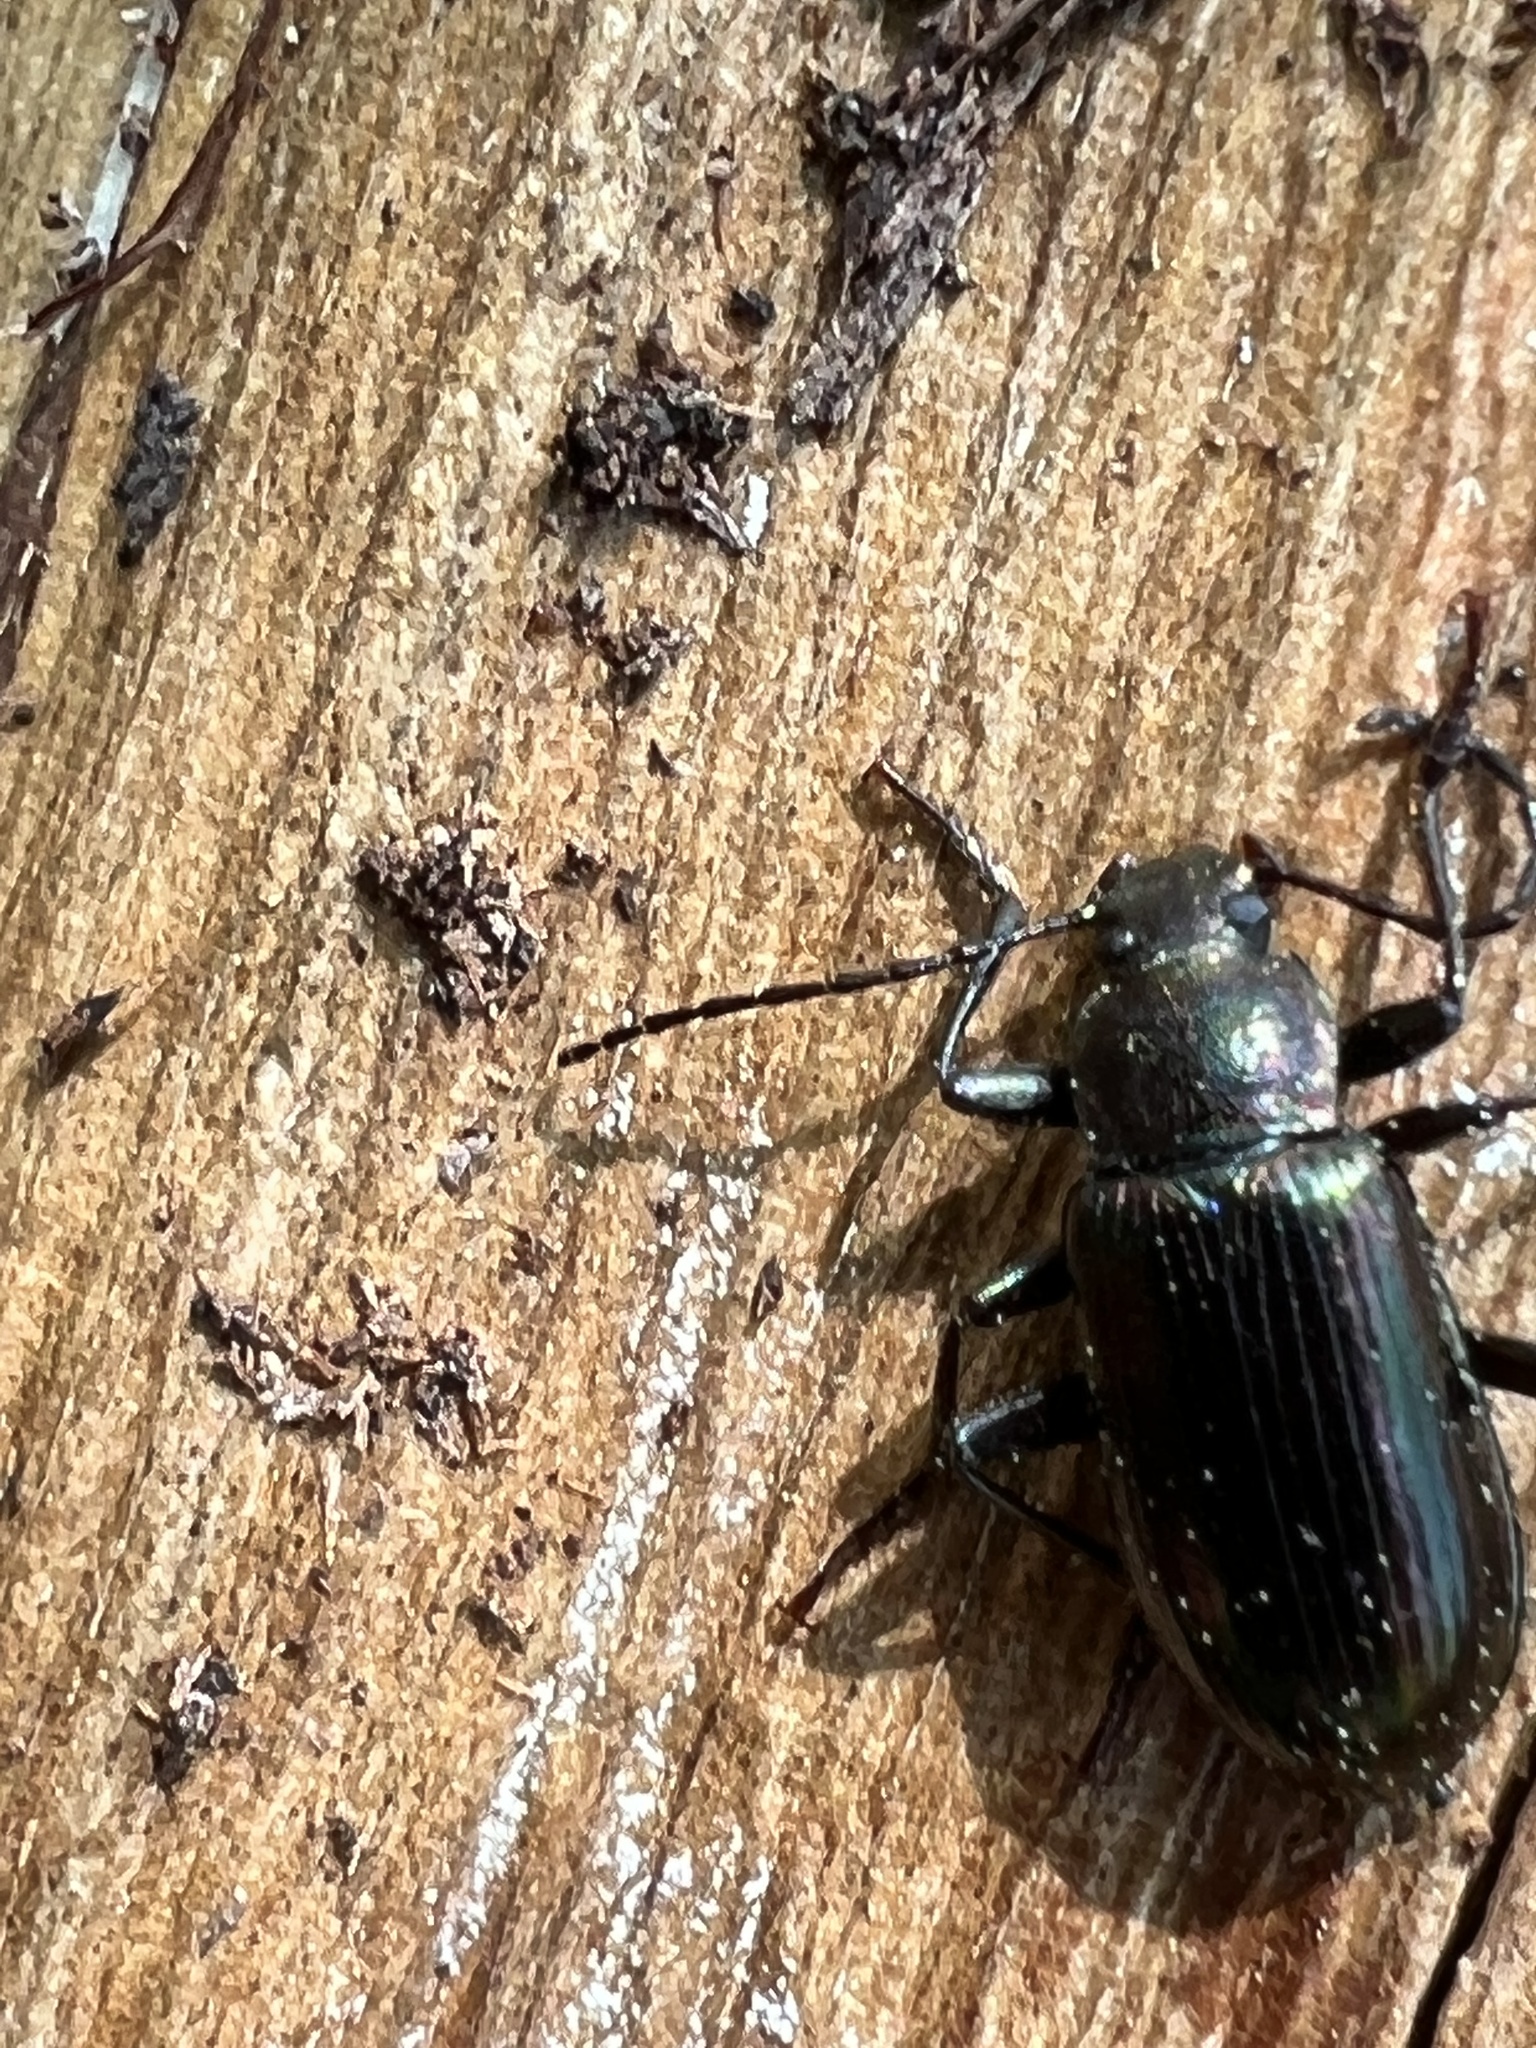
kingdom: Animalia
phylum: Arthropoda
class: Insecta
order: Coleoptera
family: Tenebrionidae
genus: Tarpela
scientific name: Tarpela micans
